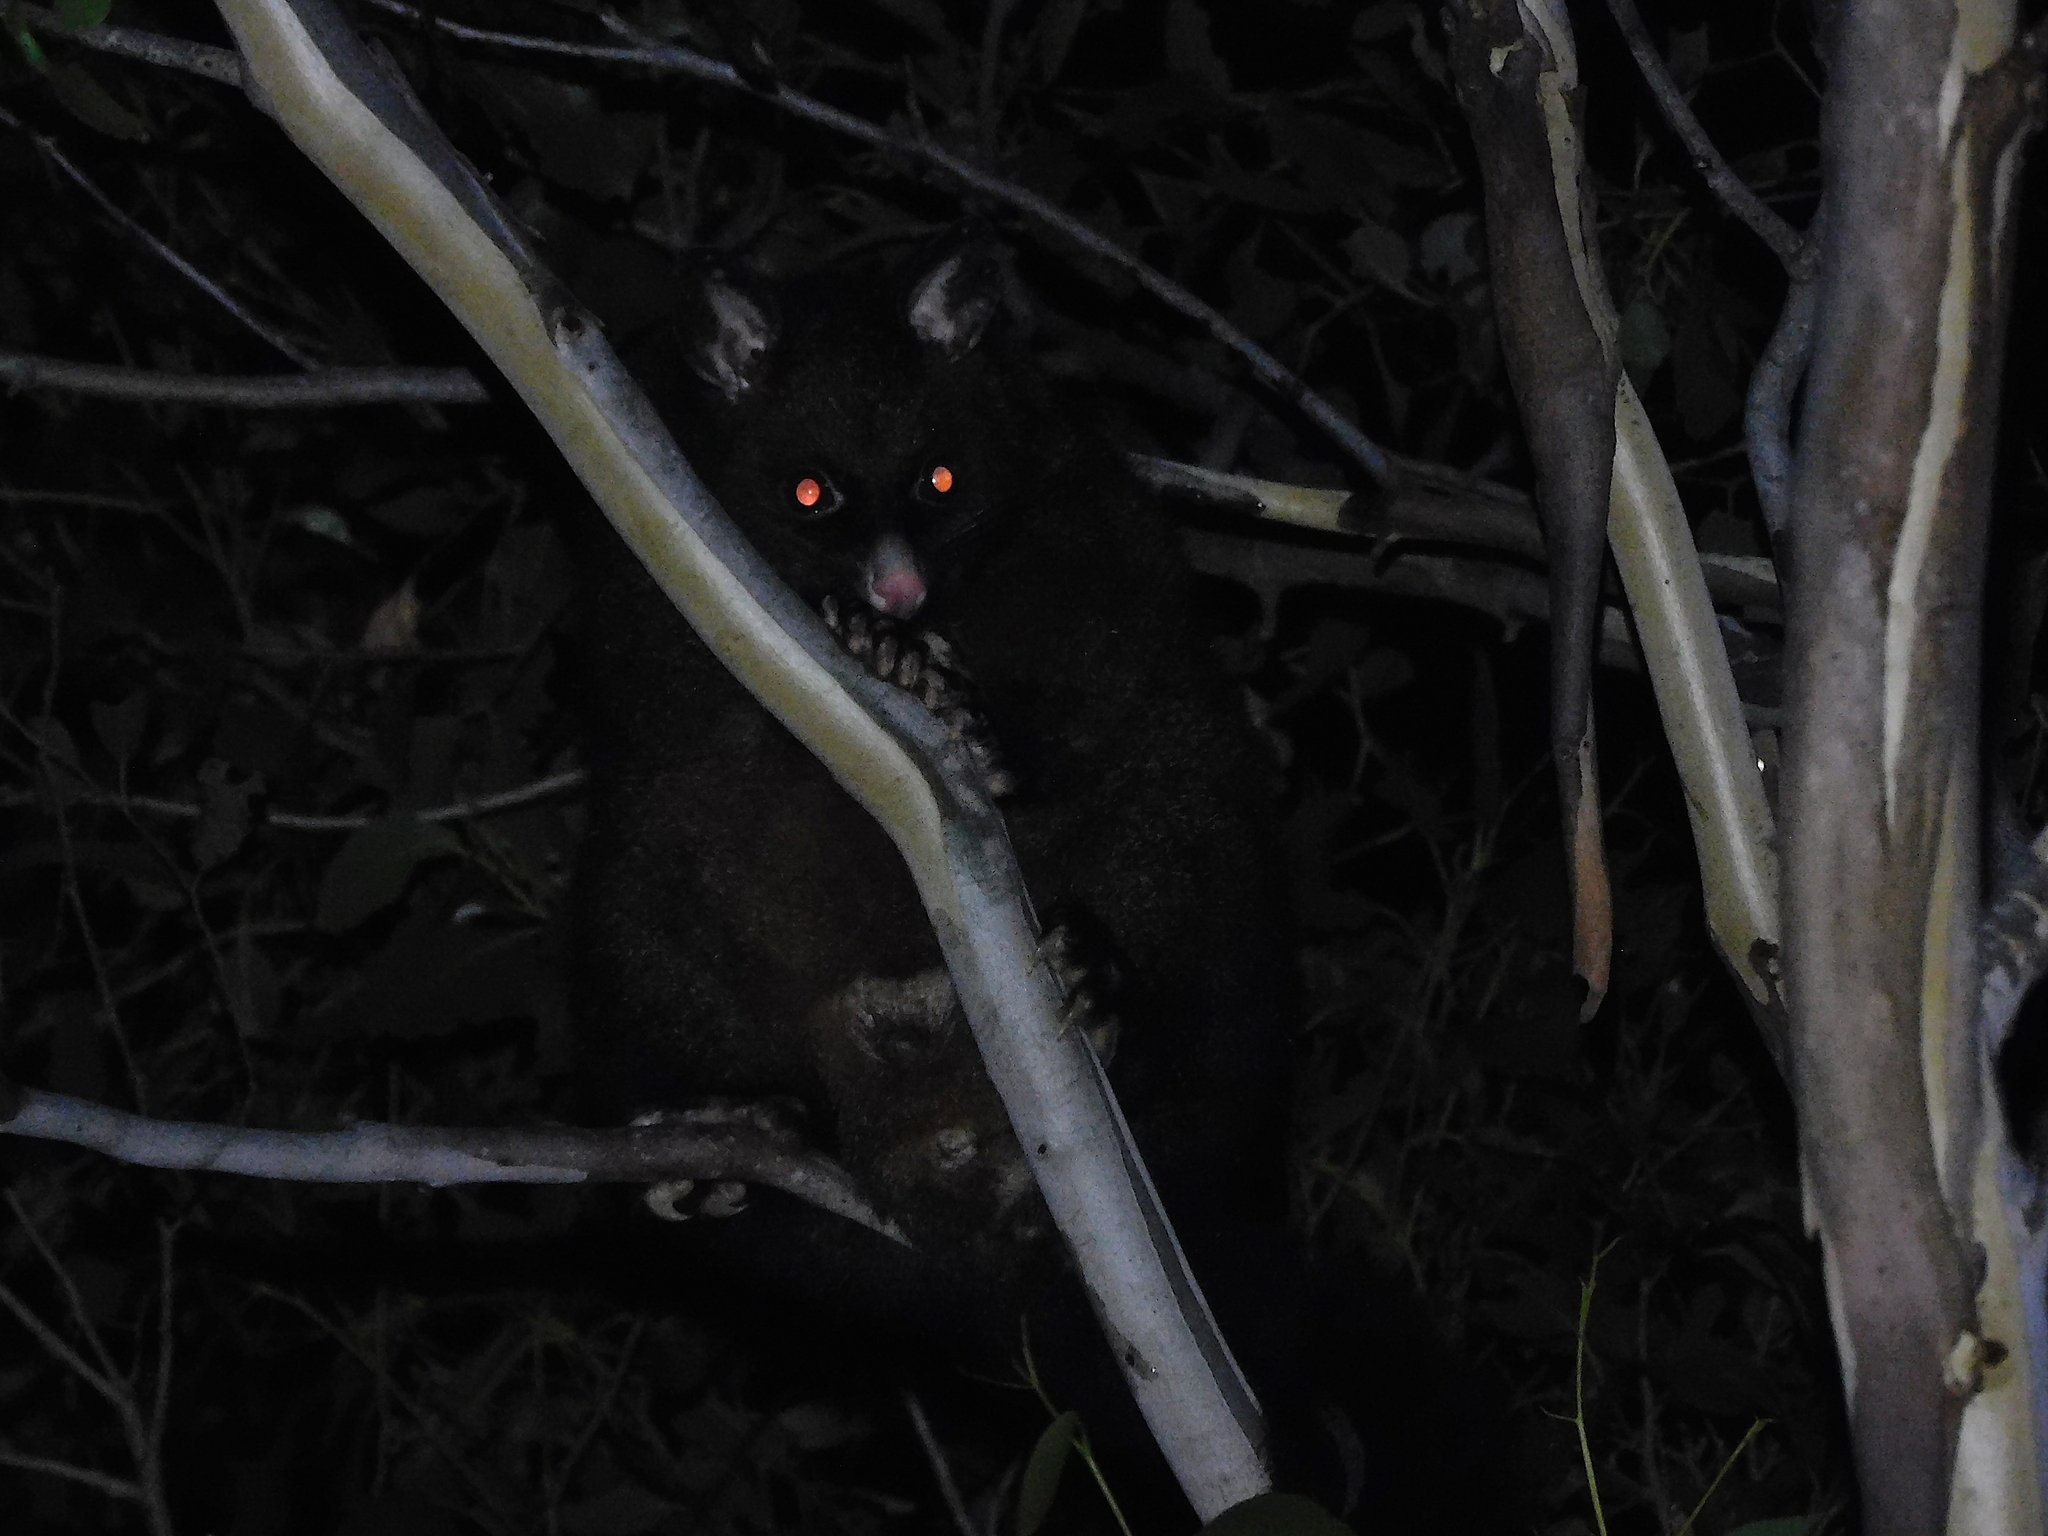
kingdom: Animalia
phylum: Chordata
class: Mammalia
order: Diprotodontia
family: Phalangeridae
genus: Trichosurus
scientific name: Trichosurus vulpecula
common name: Common brushtail
